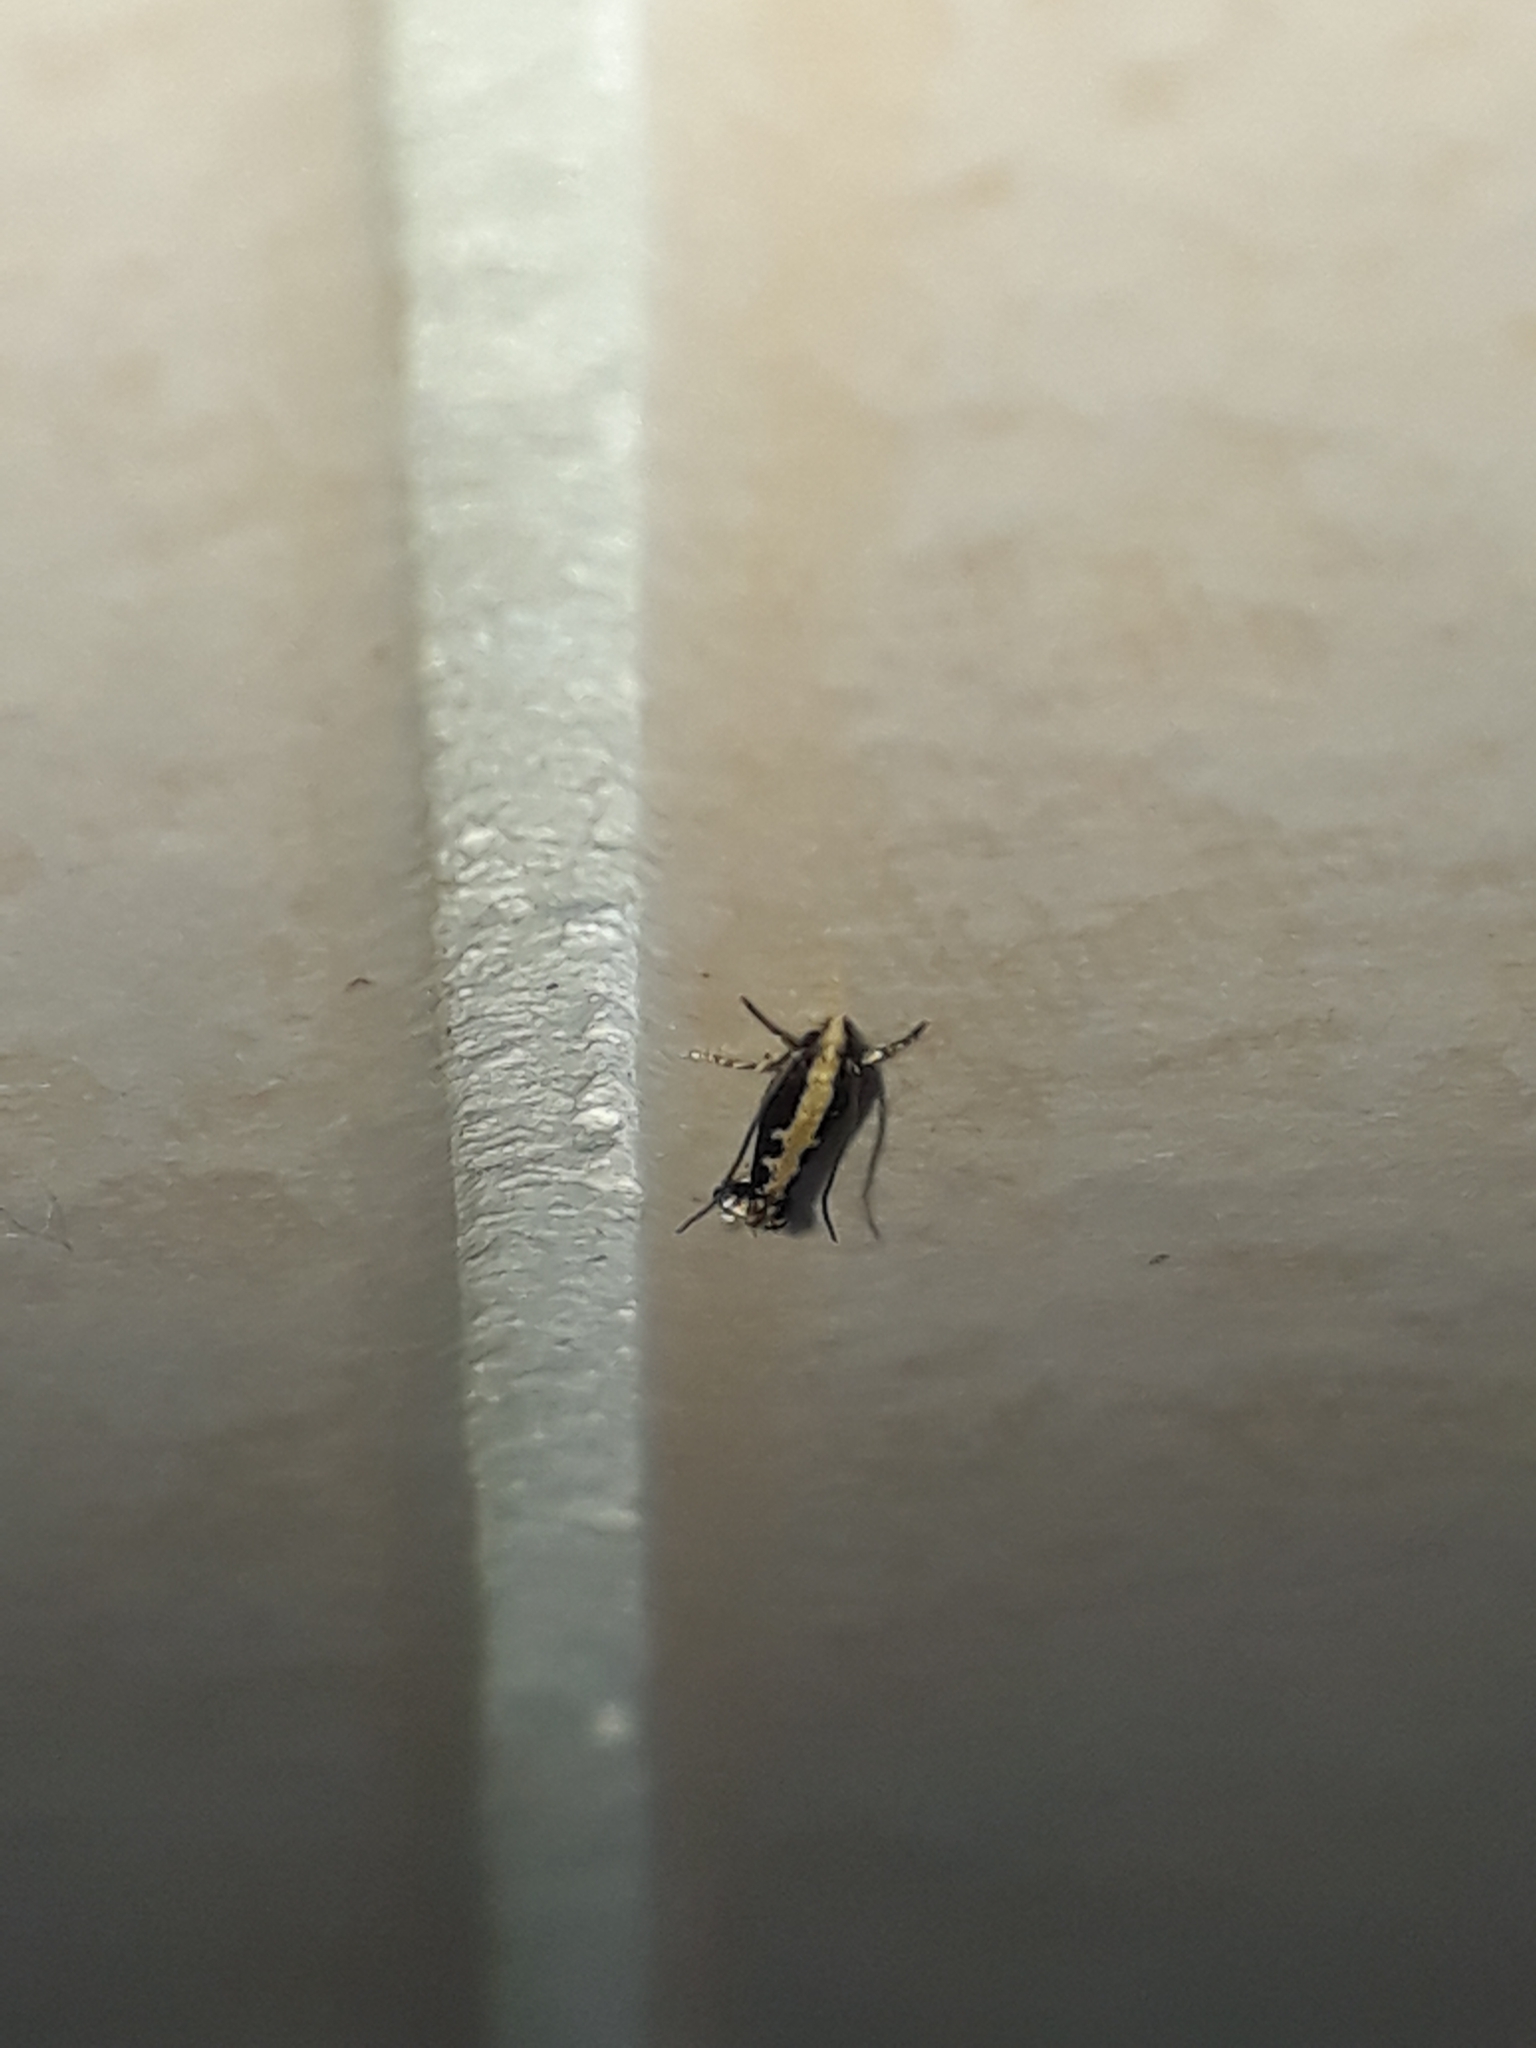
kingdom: Animalia
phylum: Arthropoda
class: Insecta
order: Lepidoptera
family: Plutellidae
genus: Plutella
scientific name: Plutella xylostella
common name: Diamond-back moth
